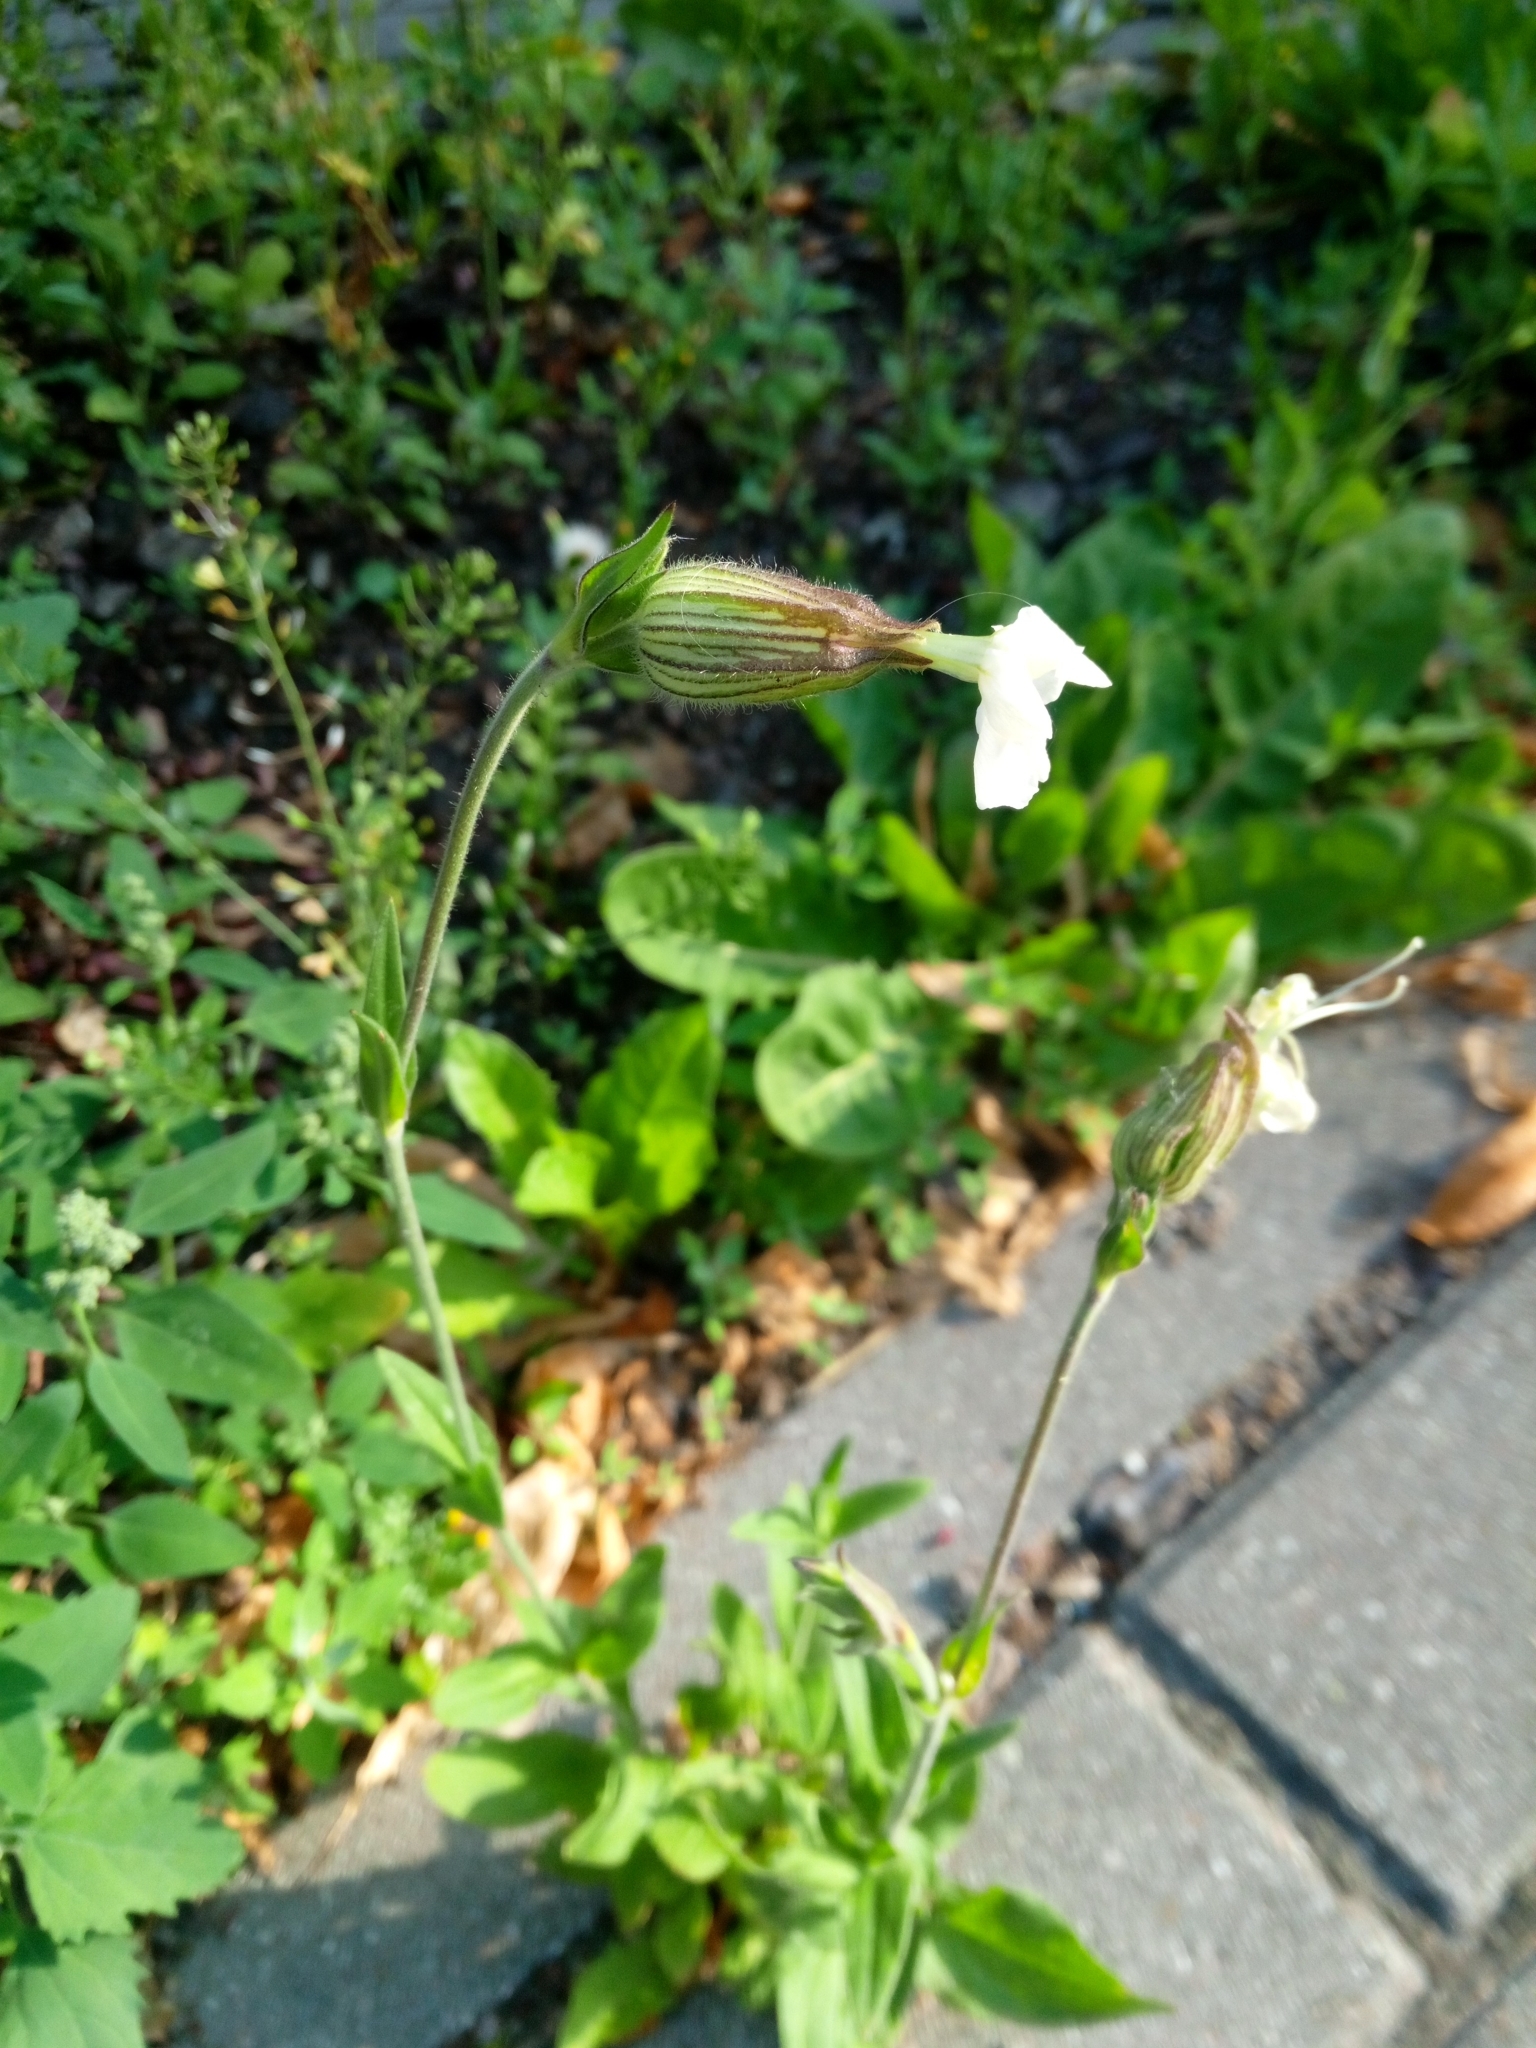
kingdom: Plantae
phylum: Tracheophyta
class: Magnoliopsida
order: Caryophyllales
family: Caryophyllaceae
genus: Silene
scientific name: Silene latifolia
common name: White campion
